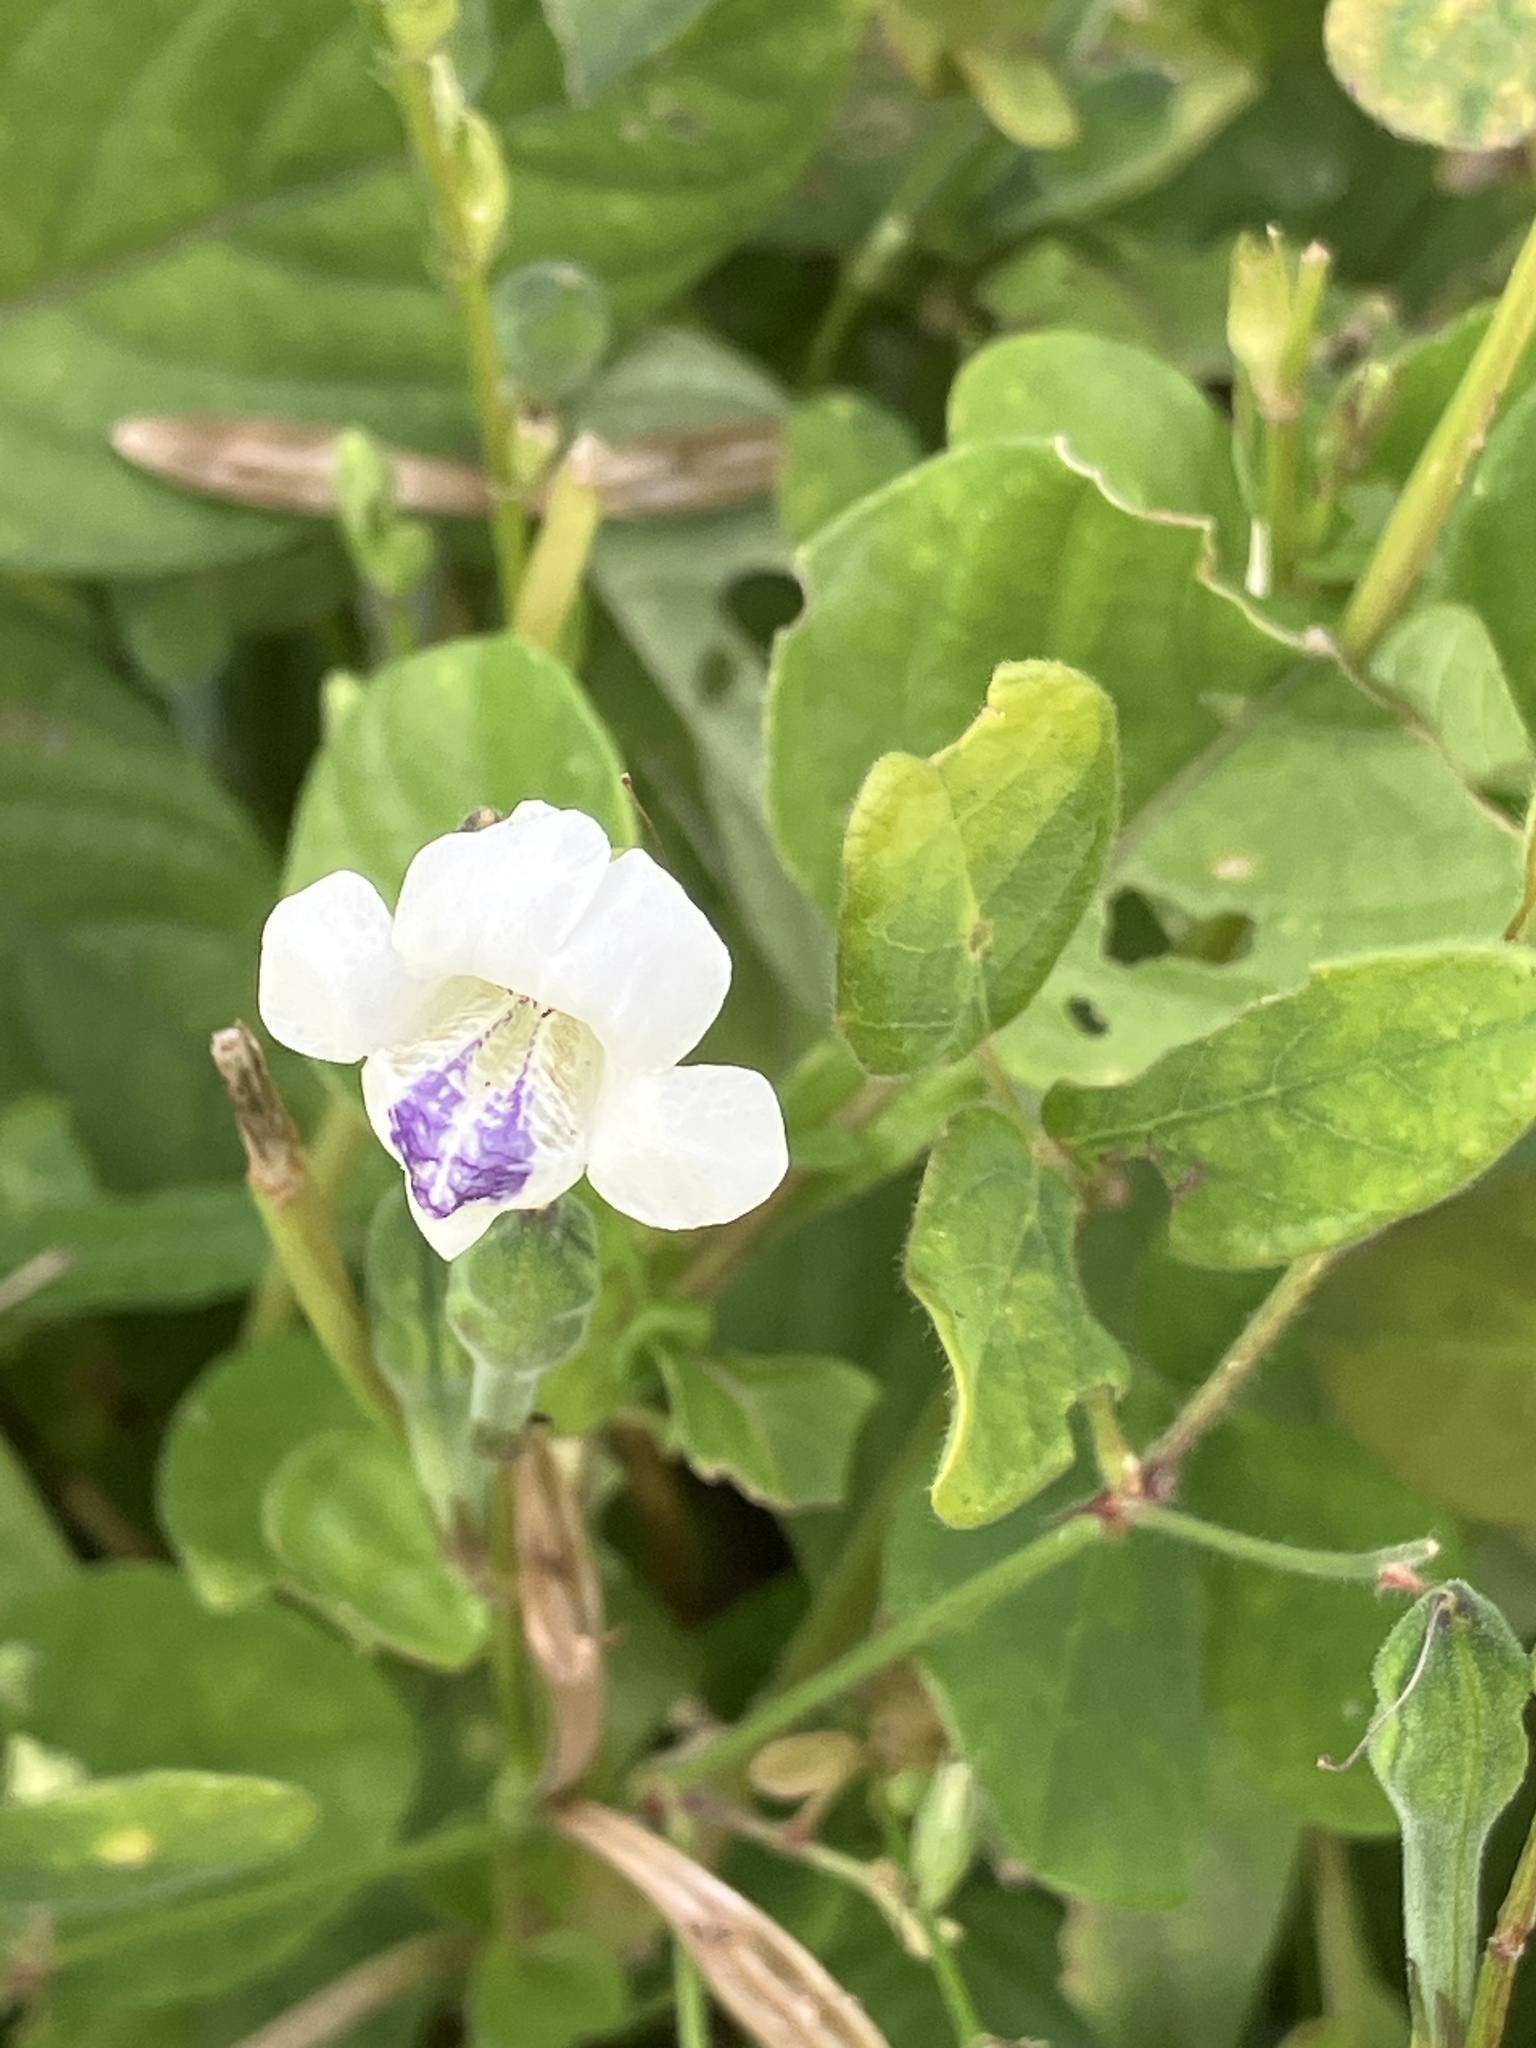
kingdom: Plantae
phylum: Tracheophyta
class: Magnoliopsida
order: Lamiales
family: Acanthaceae
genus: Asystasia
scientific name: Asystasia intrusa
